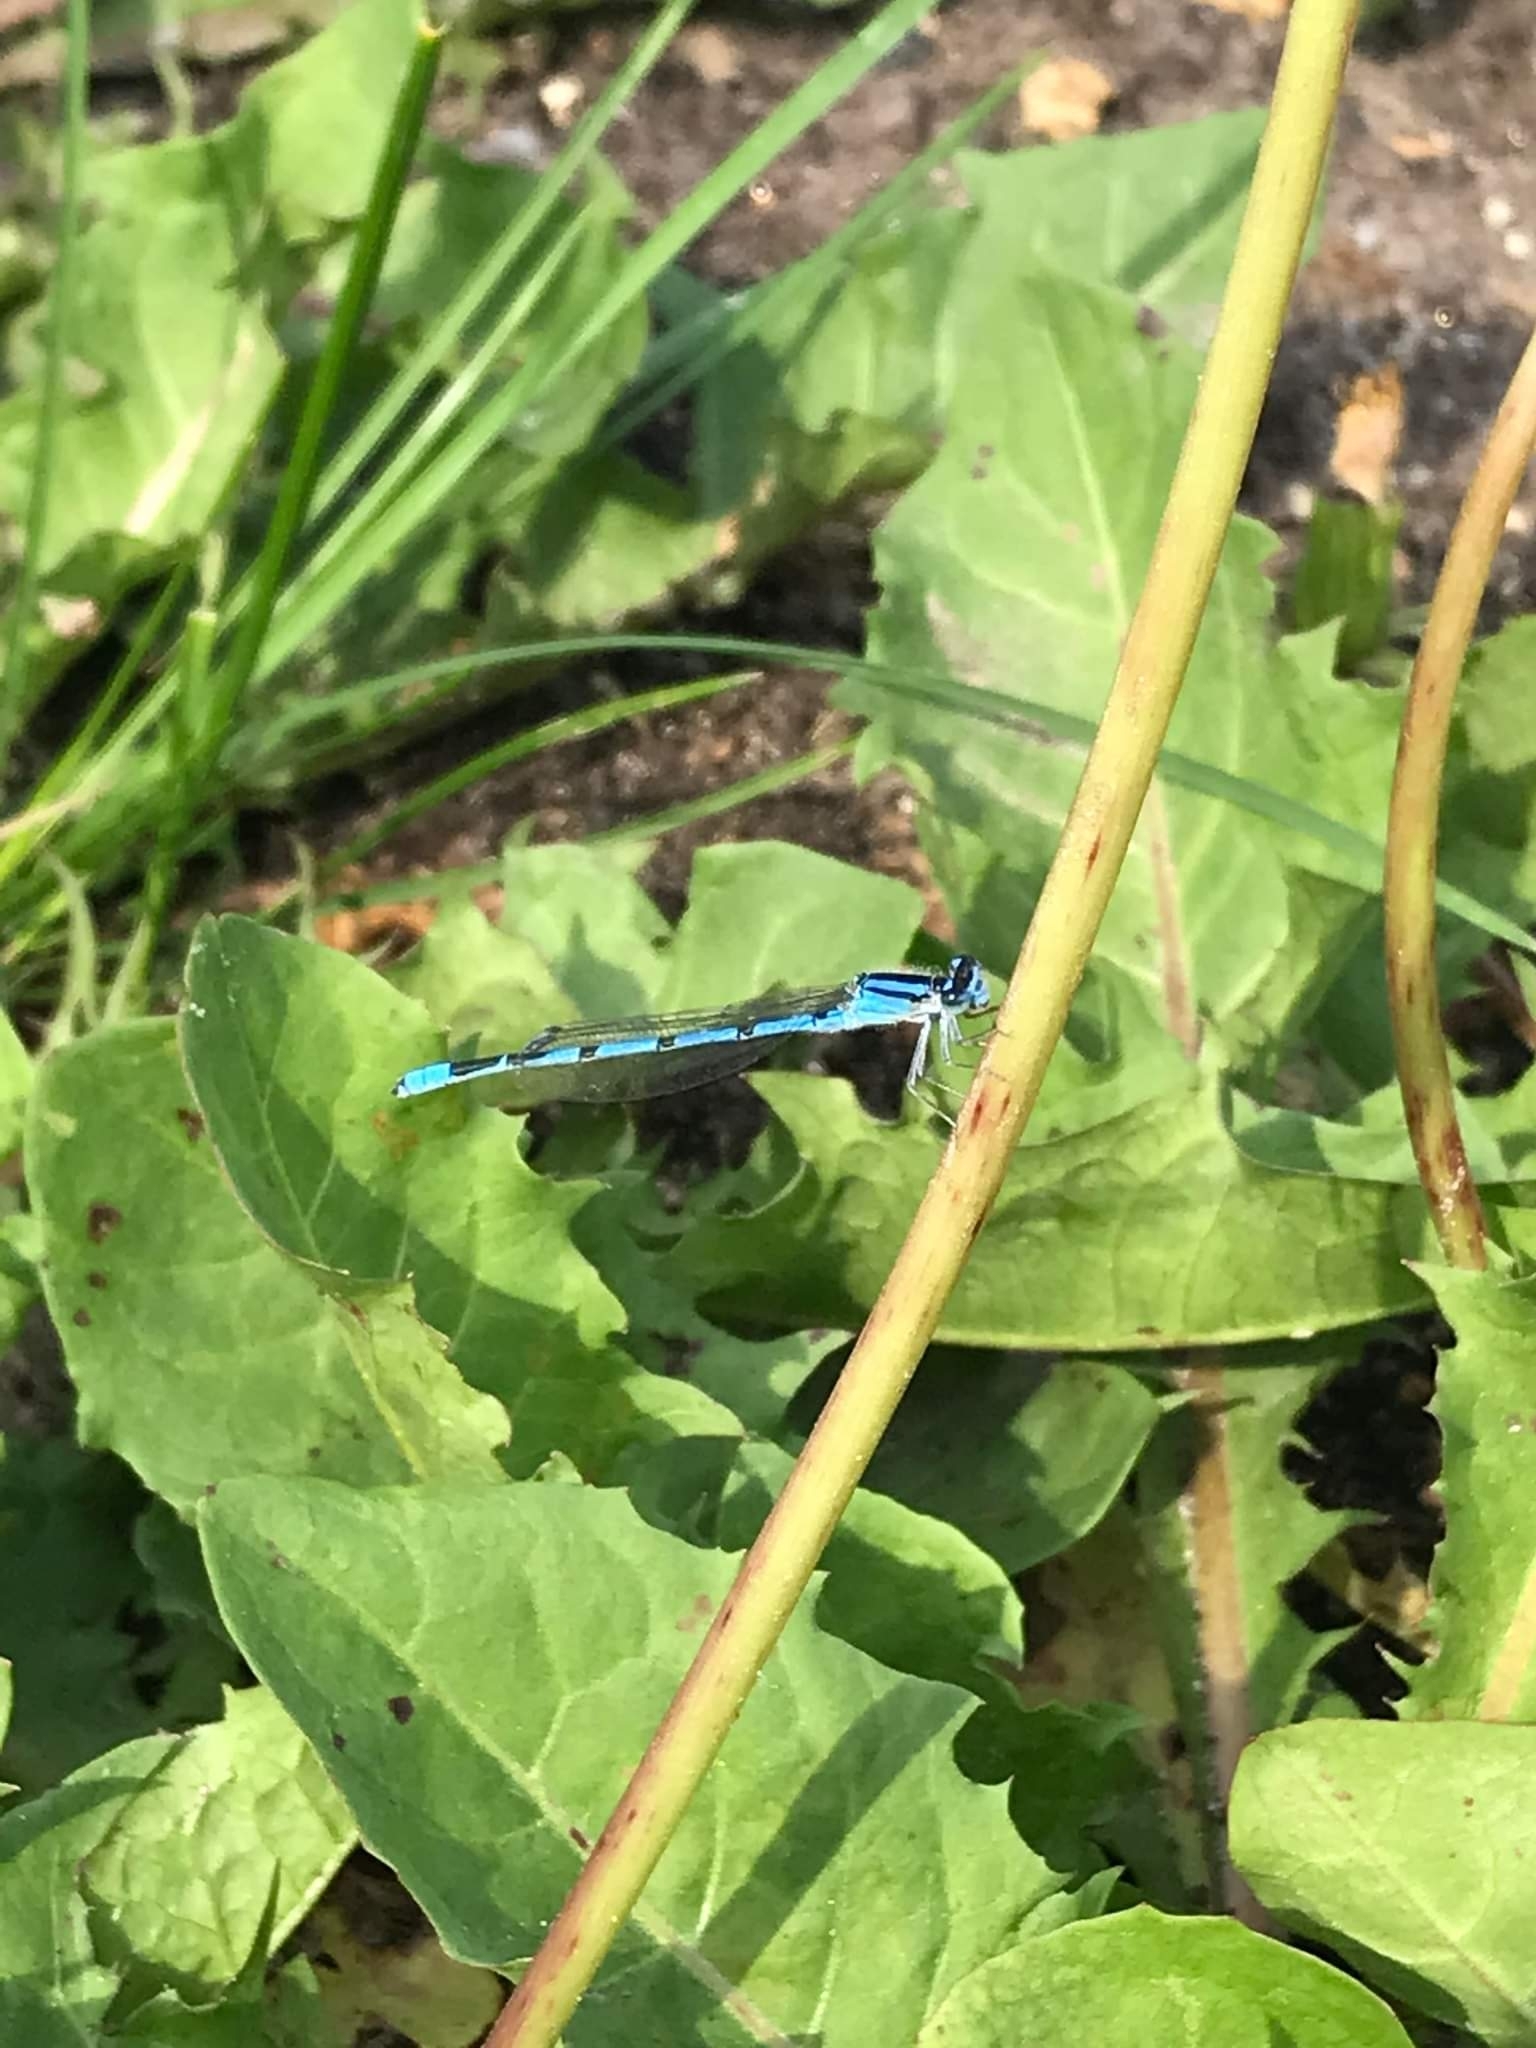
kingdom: Animalia
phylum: Arthropoda
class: Insecta
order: Odonata
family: Coenagrionidae
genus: Enallagma
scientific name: Enallagma civile
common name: Damselfly
